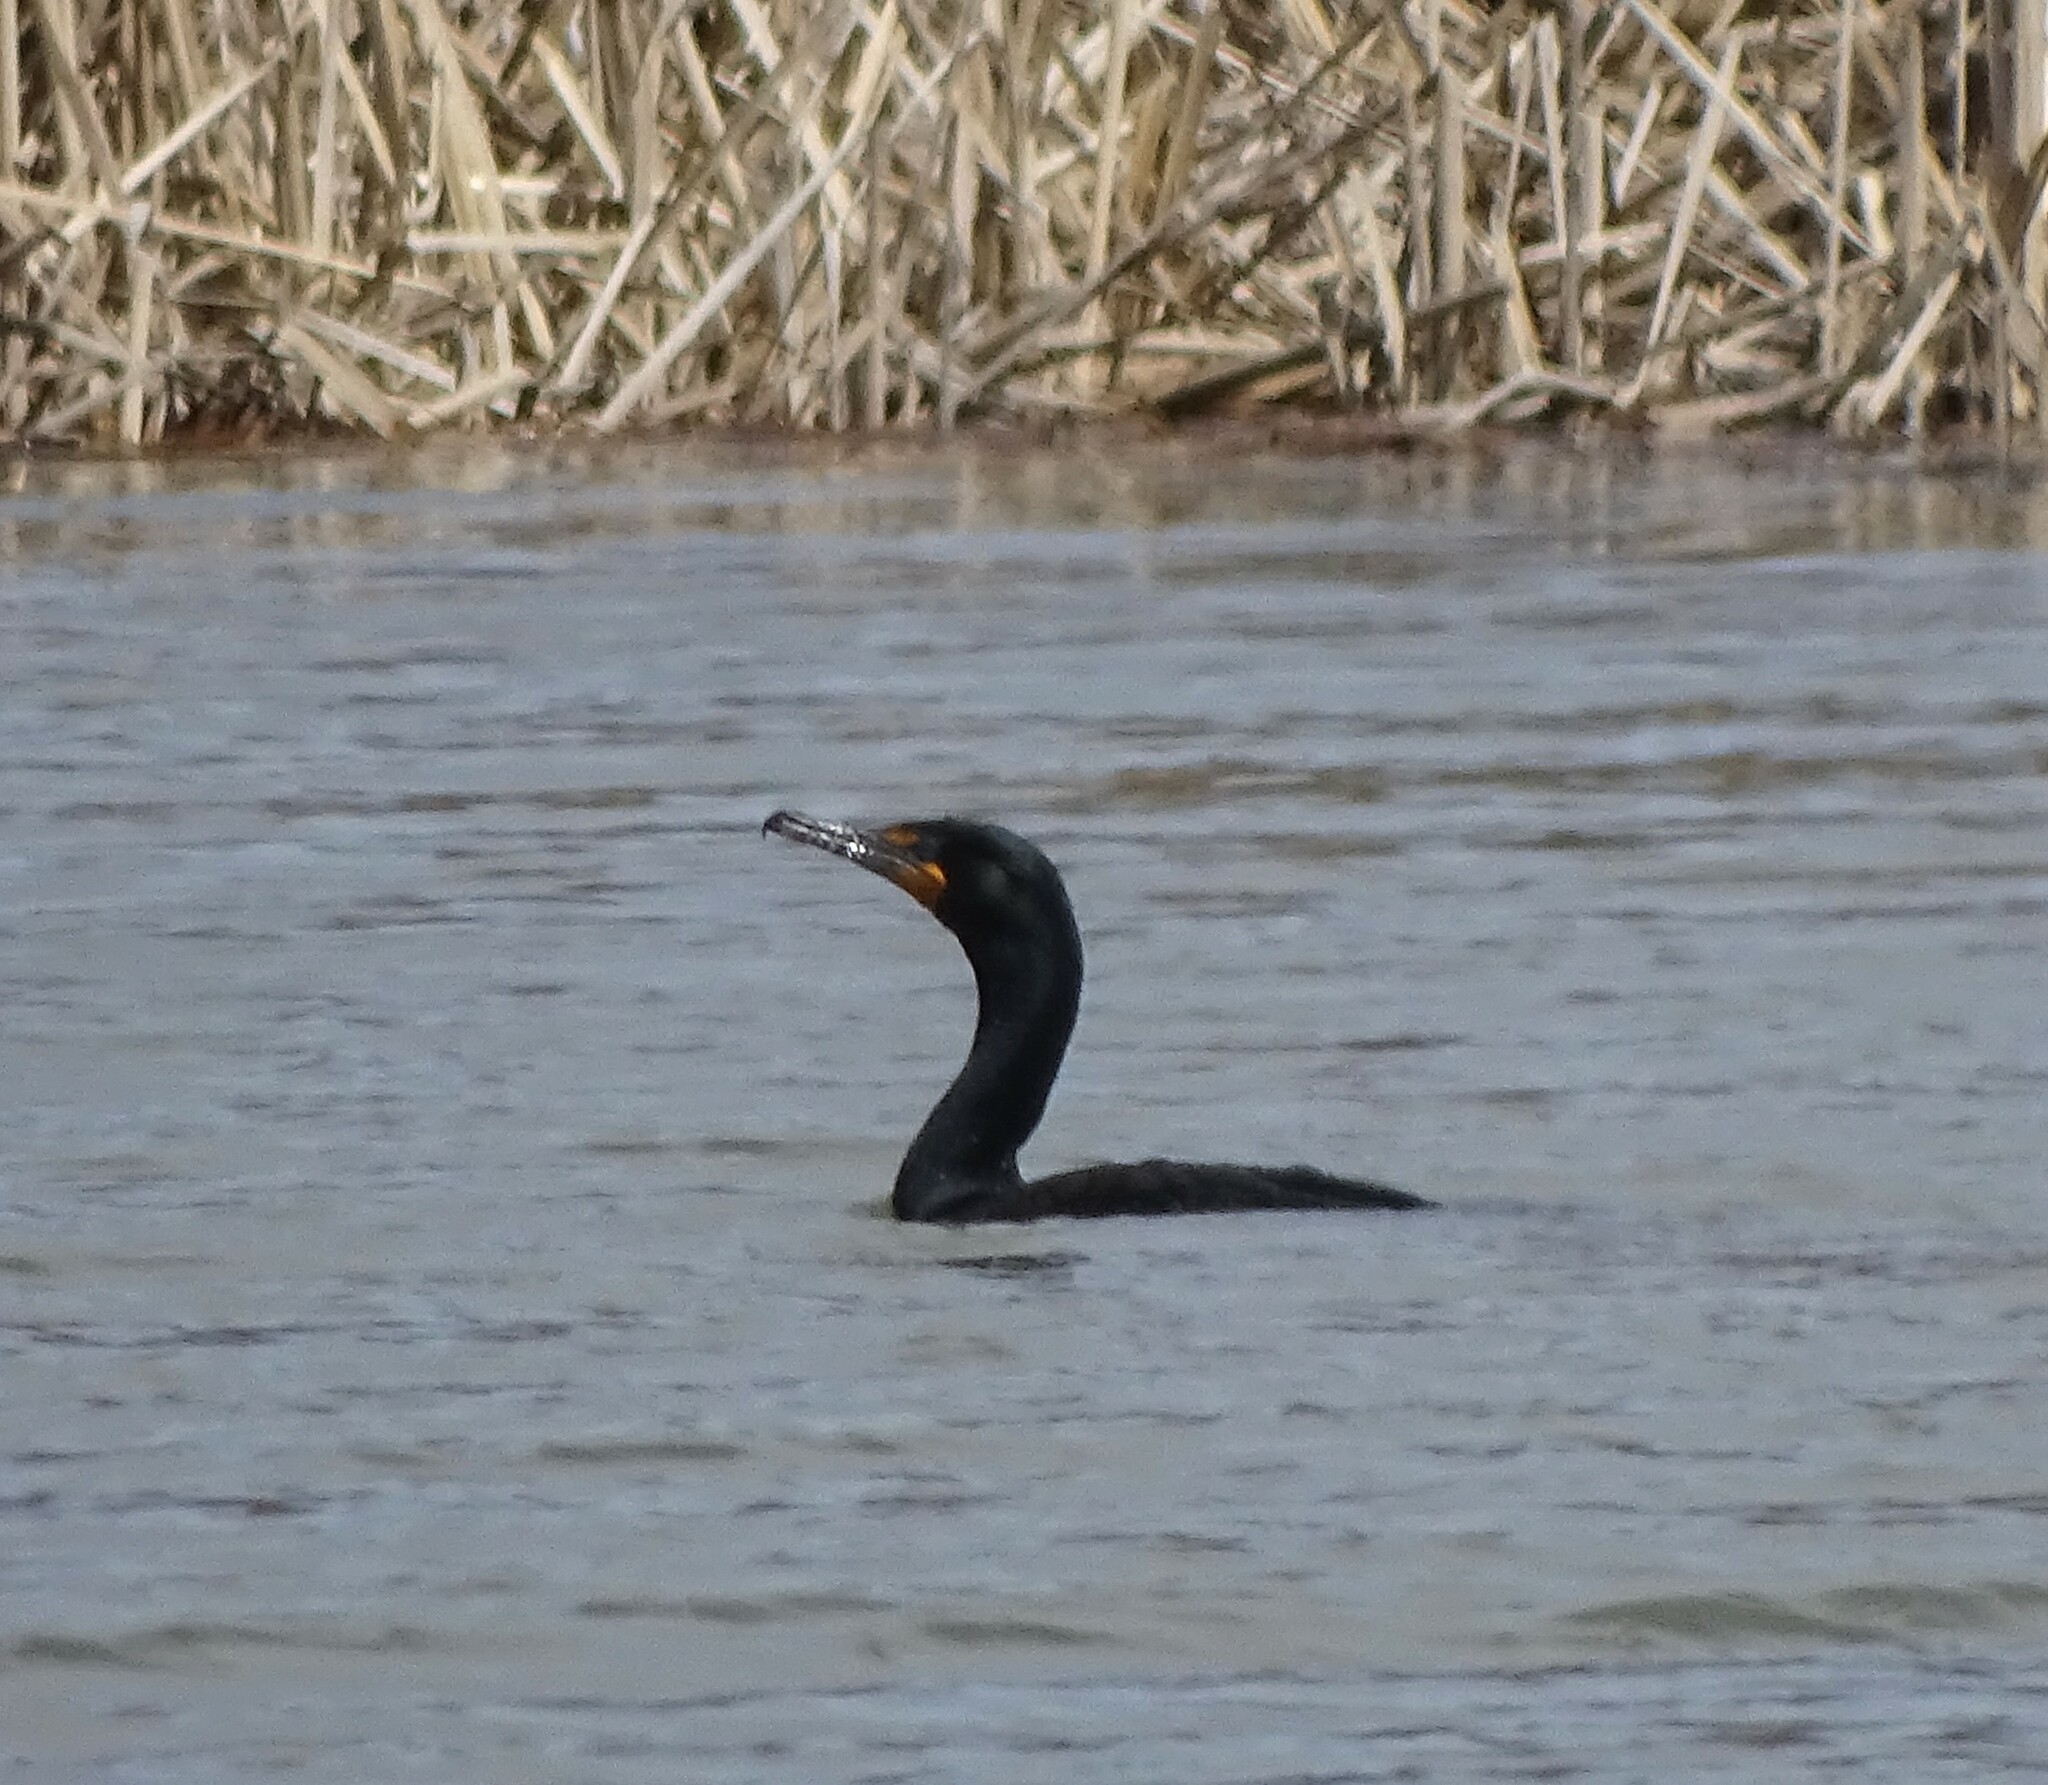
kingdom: Animalia
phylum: Chordata
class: Aves
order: Suliformes
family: Phalacrocoracidae
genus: Phalacrocorax
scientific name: Phalacrocorax auritus
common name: Double-crested cormorant
